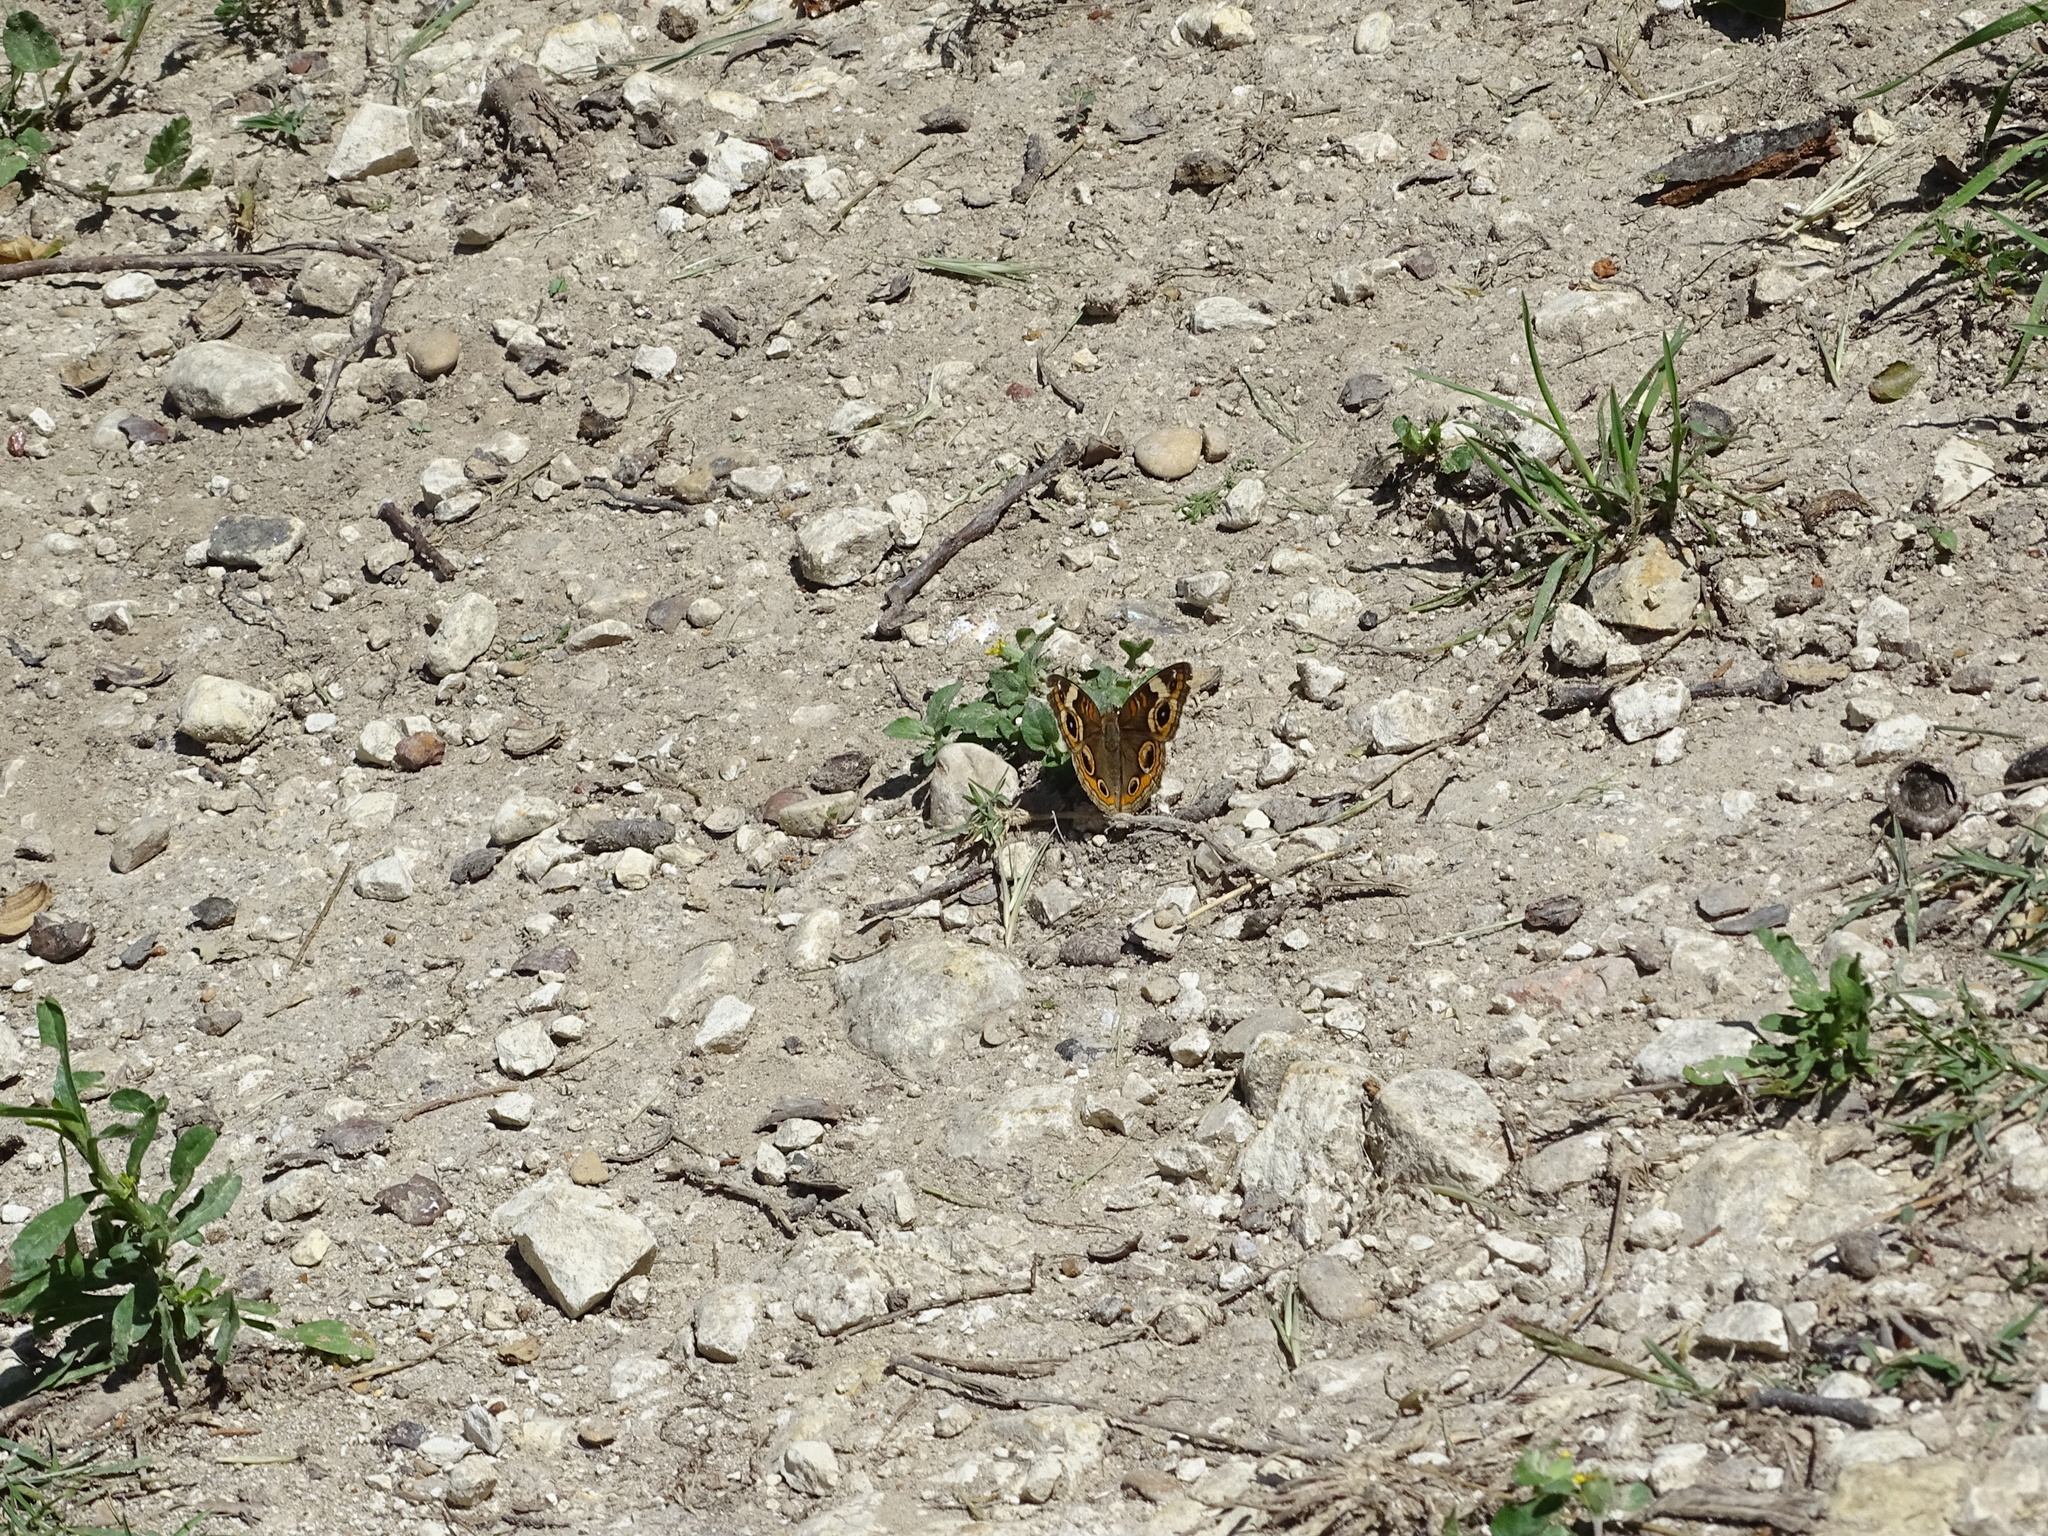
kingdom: Animalia
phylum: Arthropoda
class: Insecta
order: Lepidoptera
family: Nymphalidae
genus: Junonia
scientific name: Junonia coenia
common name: Common buckeye
